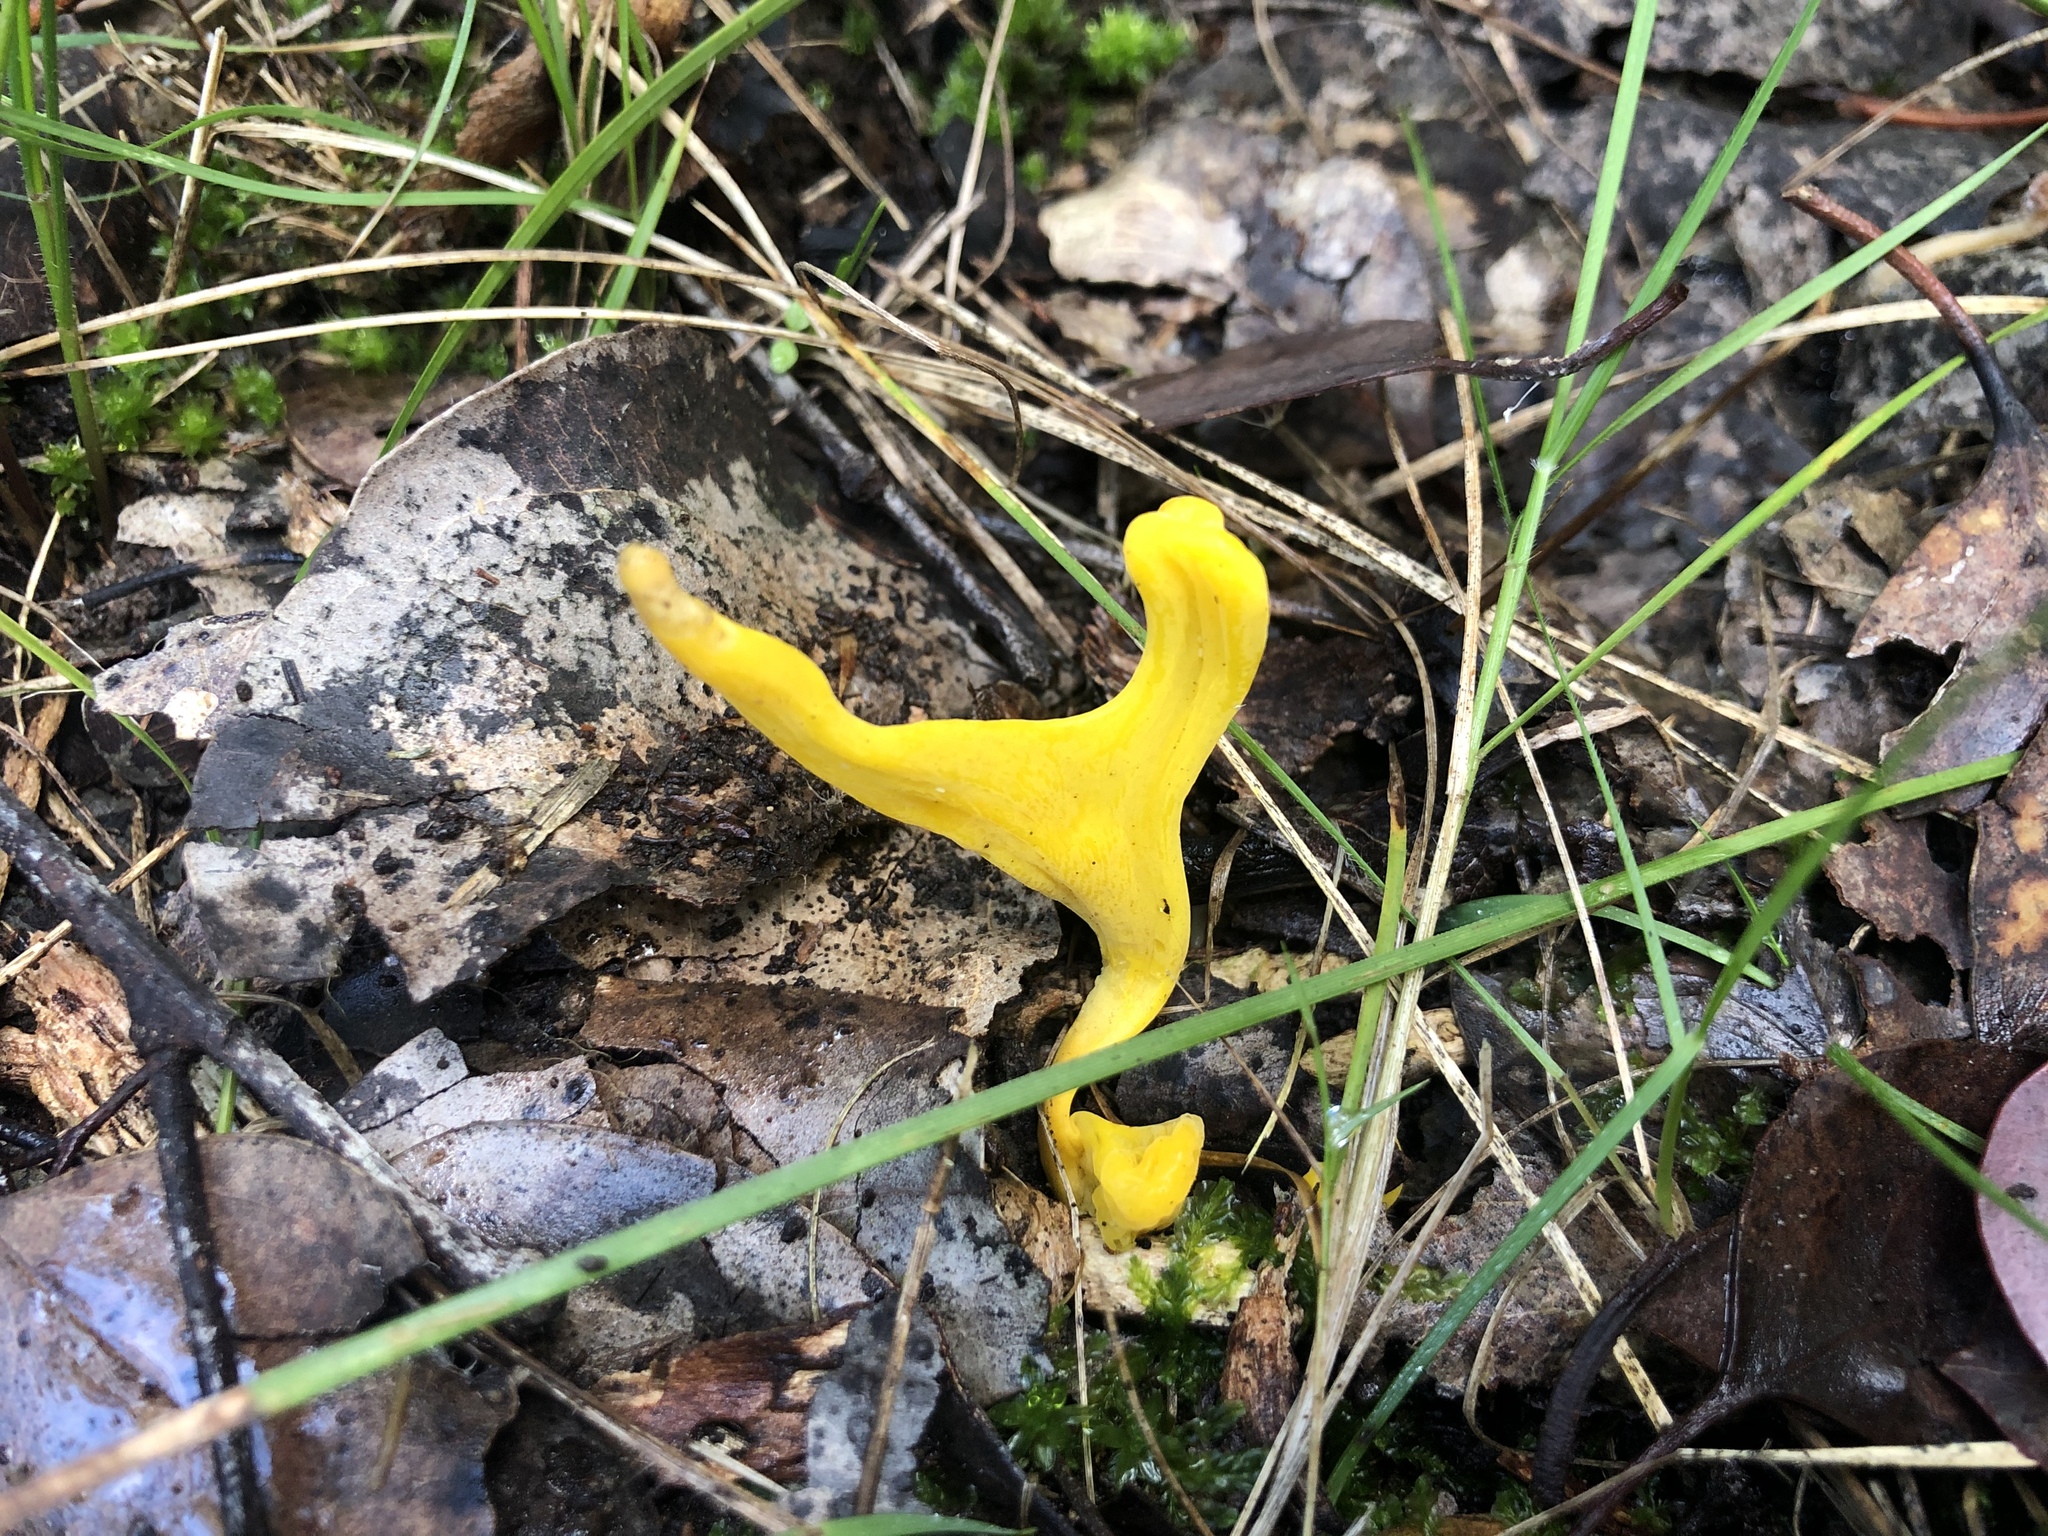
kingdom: Fungi
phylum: Basidiomycota
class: Agaricomycetes
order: Agaricales
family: Clavariaceae
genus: Clavulinopsis
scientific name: Clavulinopsis amoena
